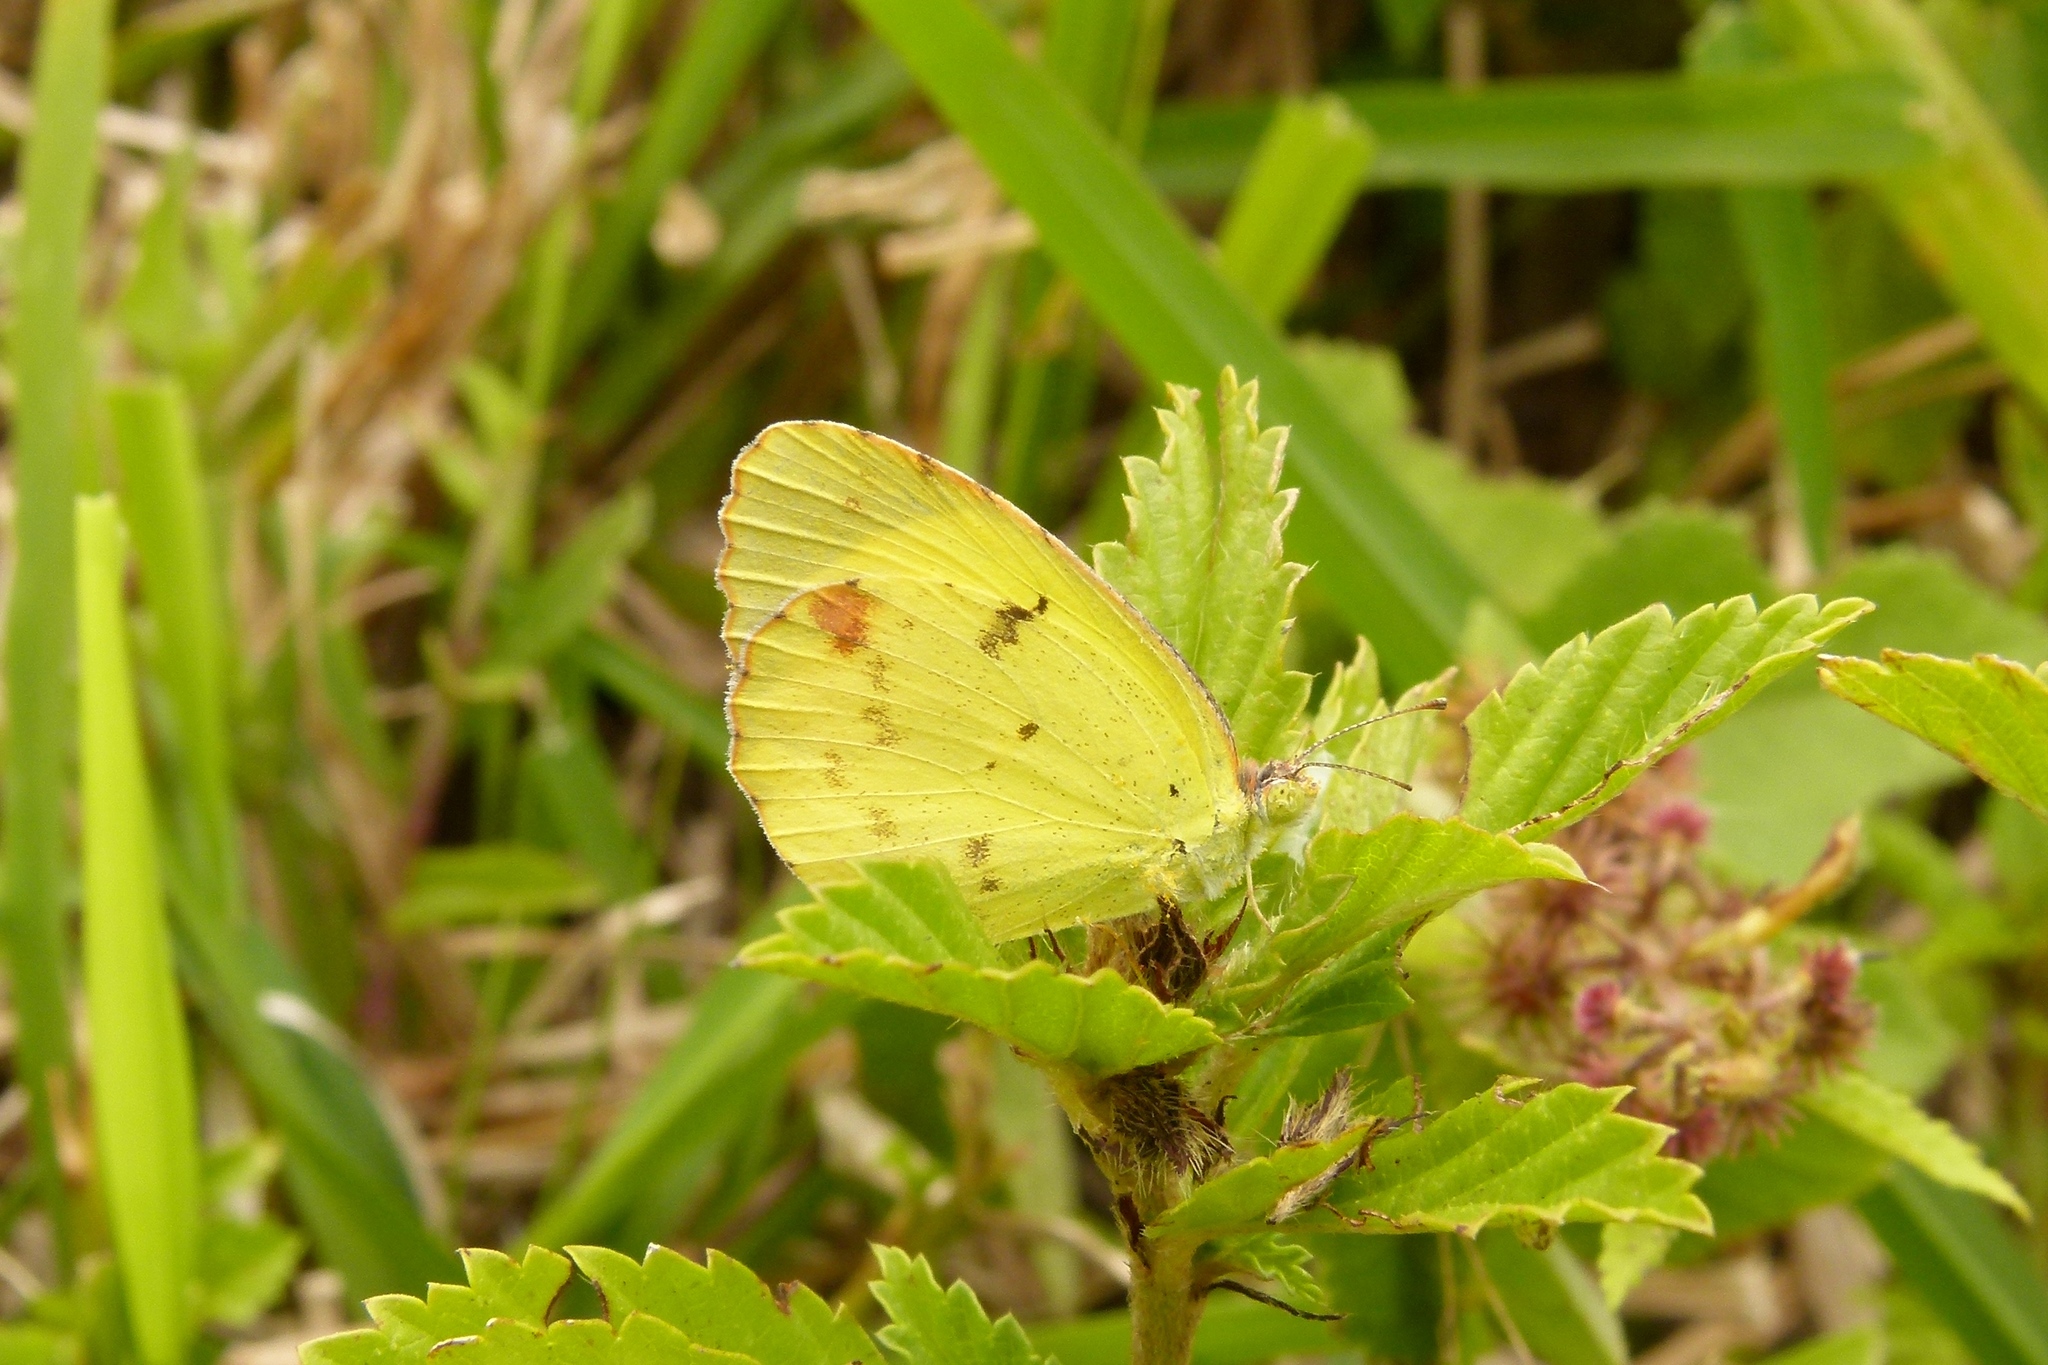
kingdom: Animalia
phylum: Arthropoda
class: Insecta
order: Lepidoptera
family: Pieridae
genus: Pyrisitia
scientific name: Pyrisitia lisa
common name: Little yellow
